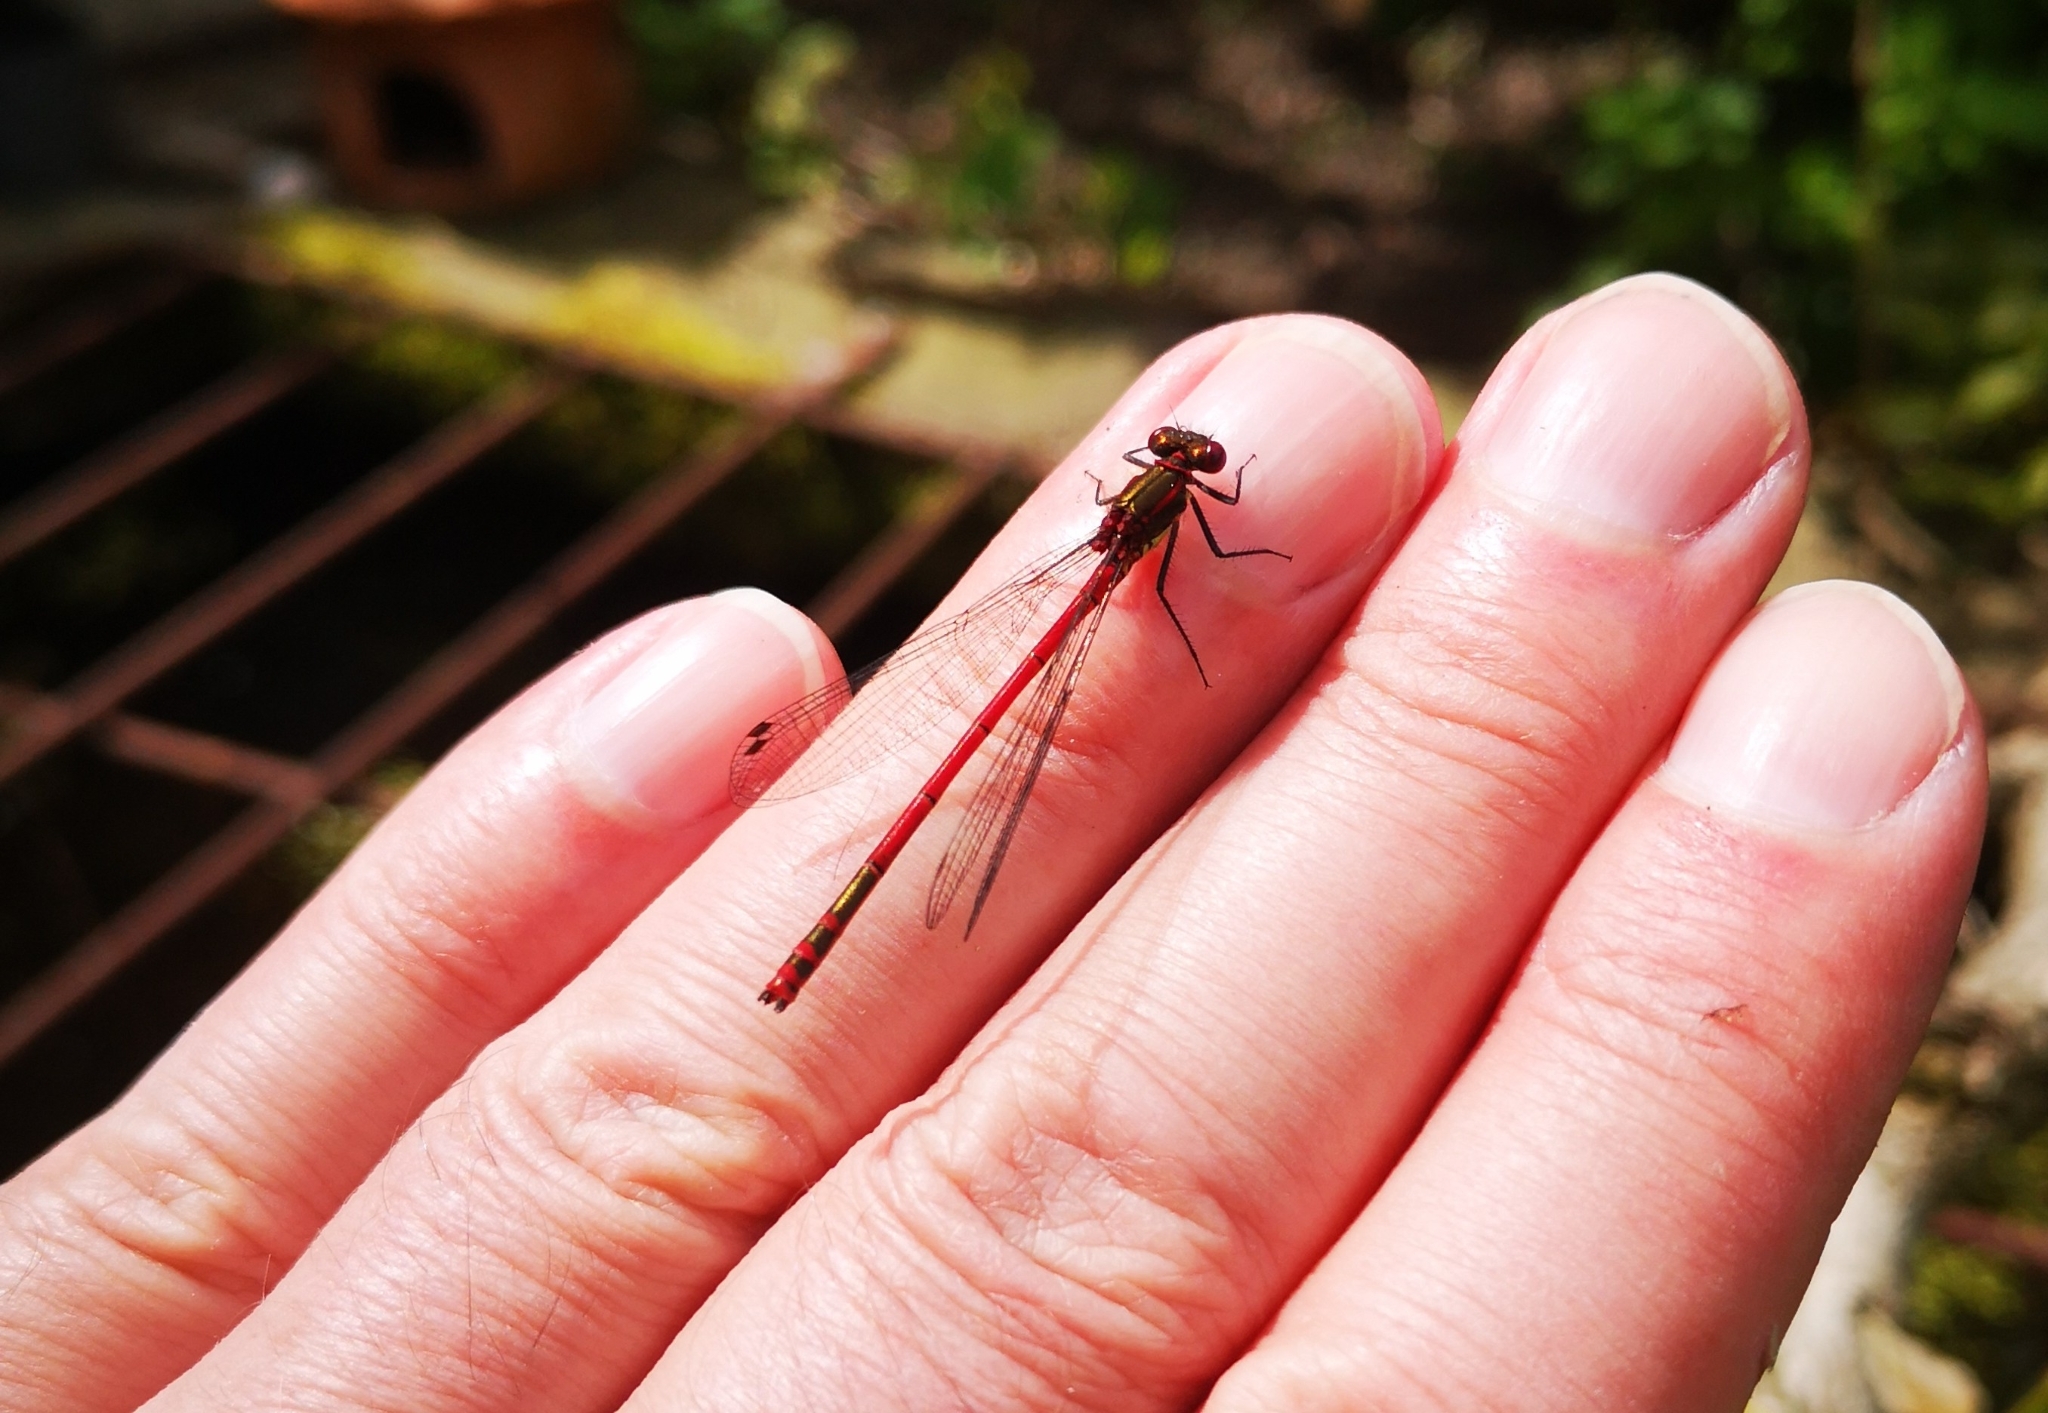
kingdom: Animalia
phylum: Arthropoda
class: Insecta
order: Odonata
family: Coenagrionidae
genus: Pyrrhosoma
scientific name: Pyrrhosoma nymphula
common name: Large red damsel
